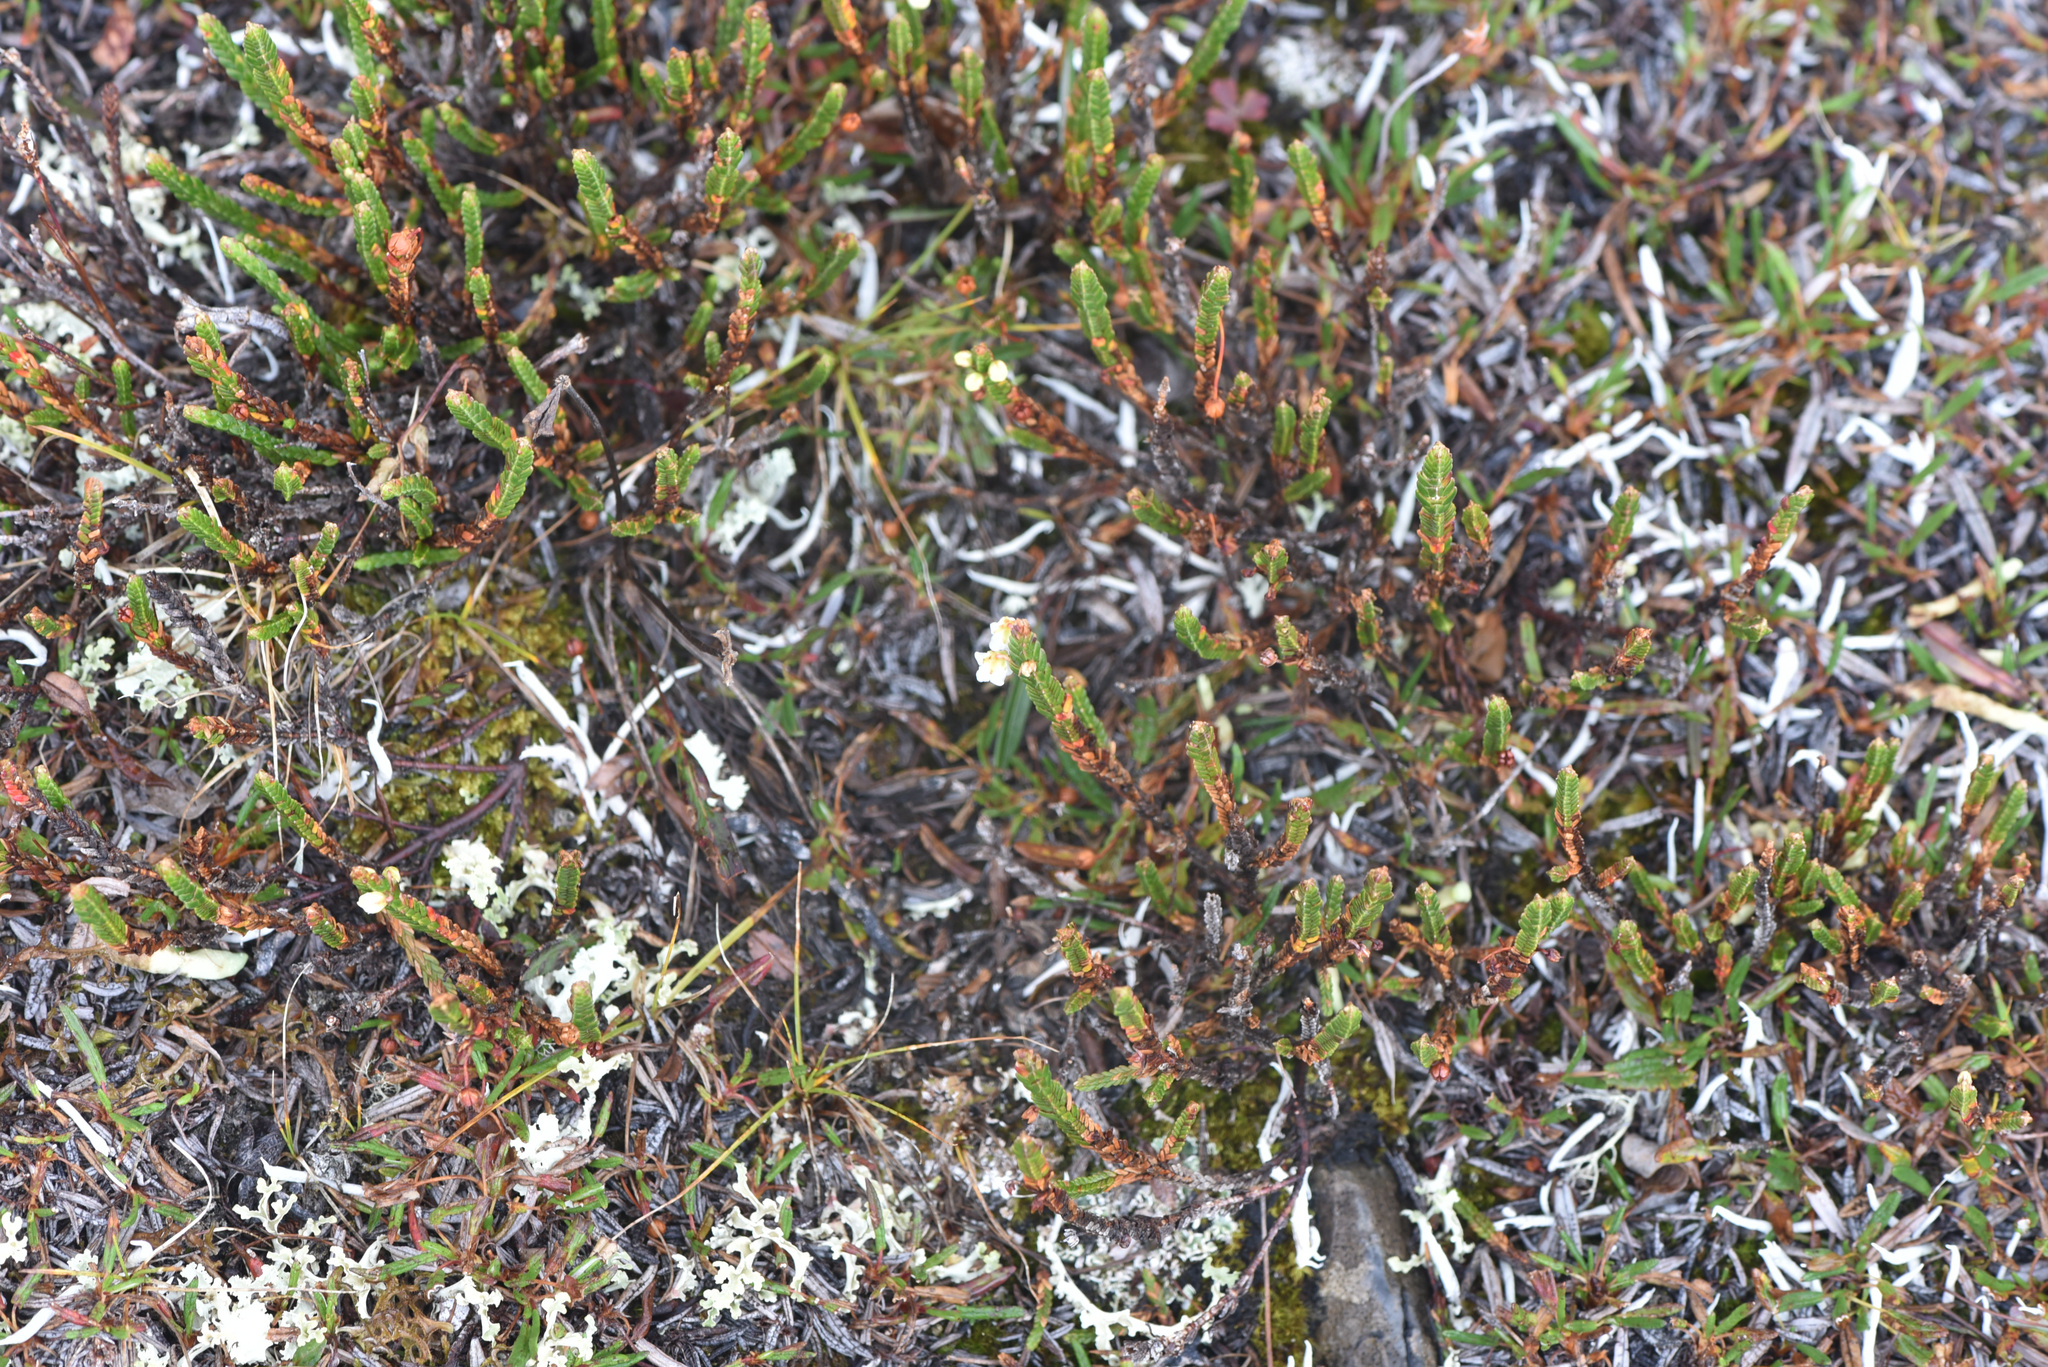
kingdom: Plantae
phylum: Tracheophyta
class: Magnoliopsida
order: Ericales
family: Ericaceae
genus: Cassiope
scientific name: Cassiope tetragona
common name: Arctic bell heather
